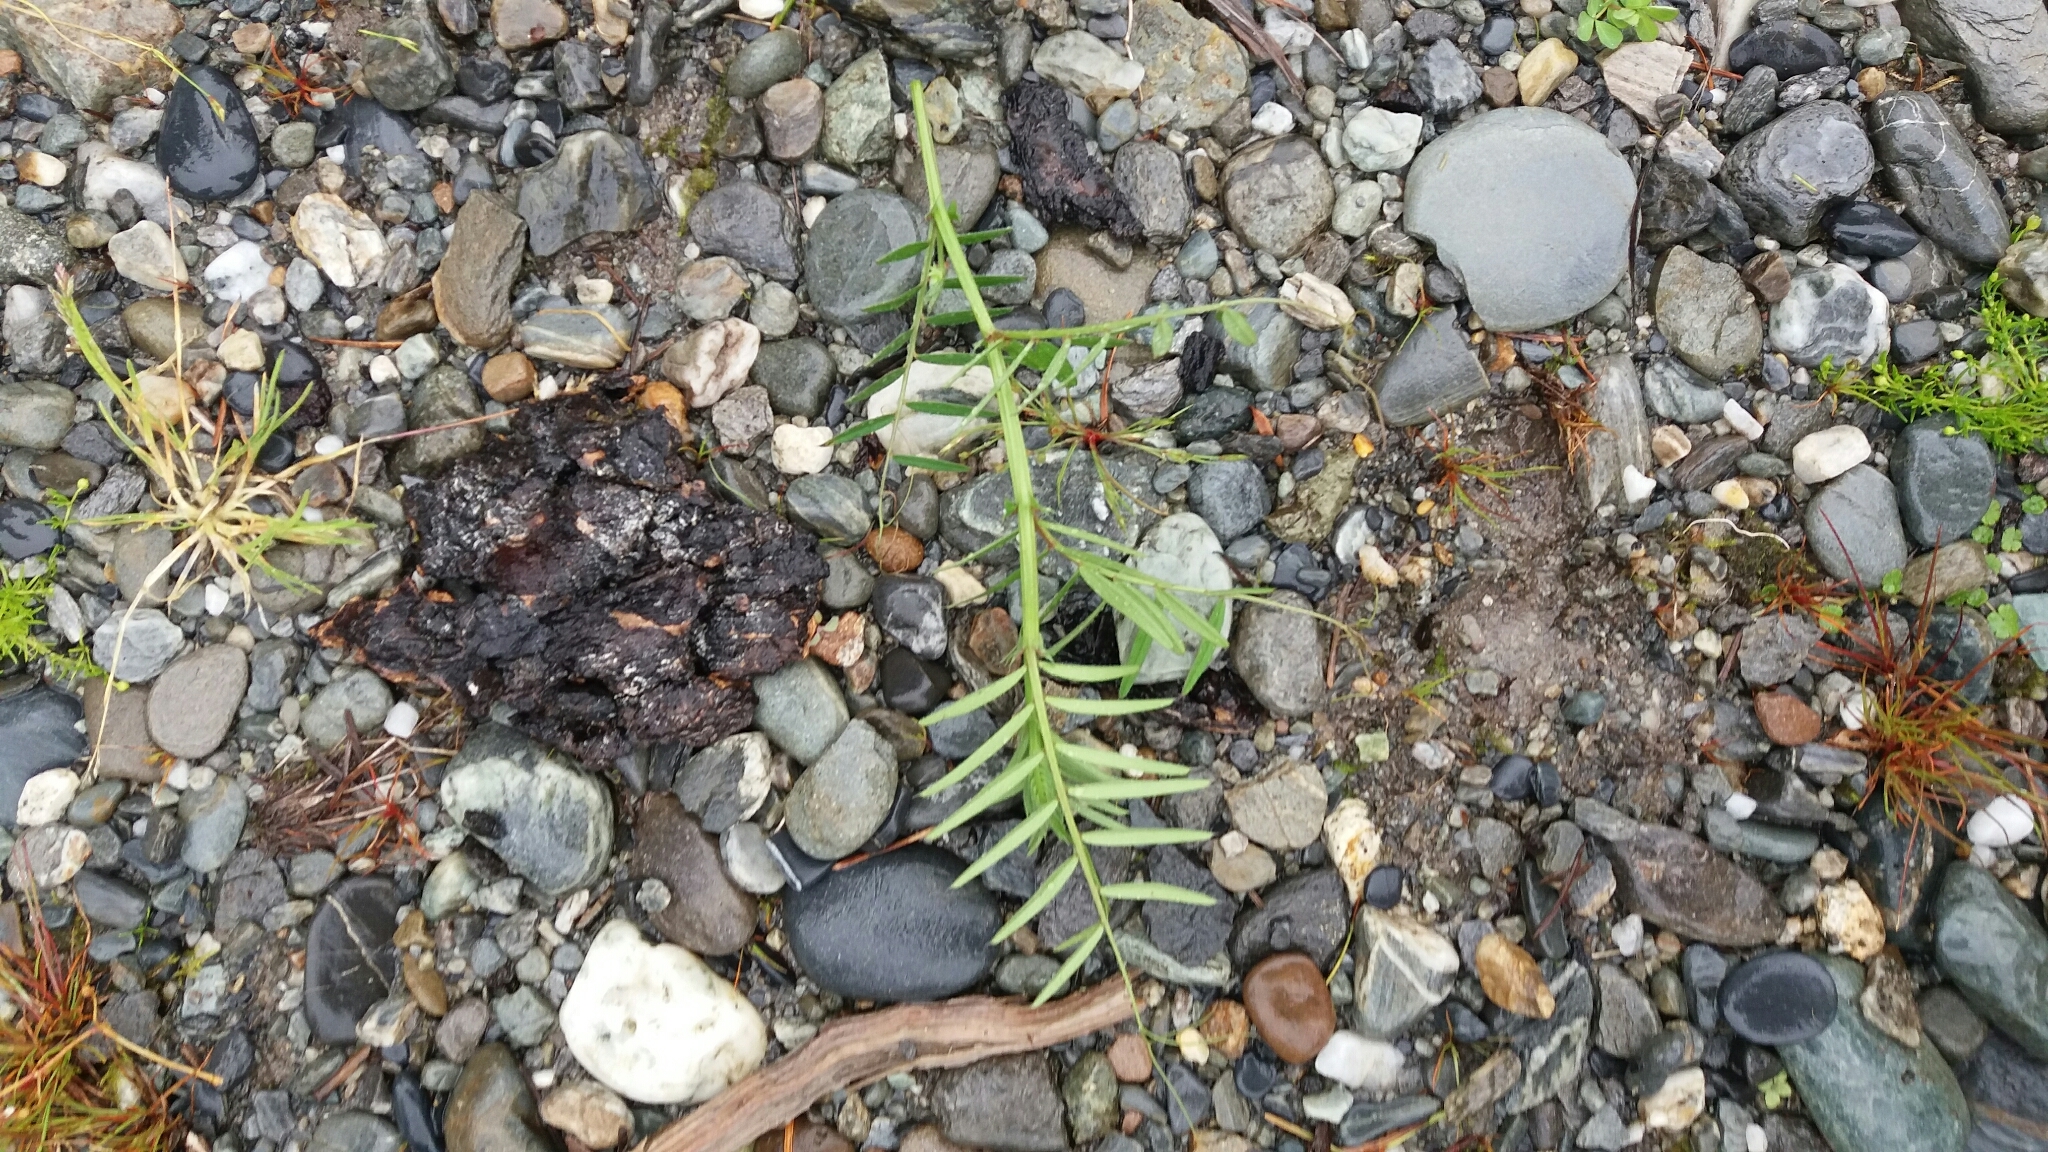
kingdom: Plantae
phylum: Tracheophyta
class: Magnoliopsida
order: Fabales
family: Fabaceae
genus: Vicia
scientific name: Vicia sativa
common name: Garden vetch
